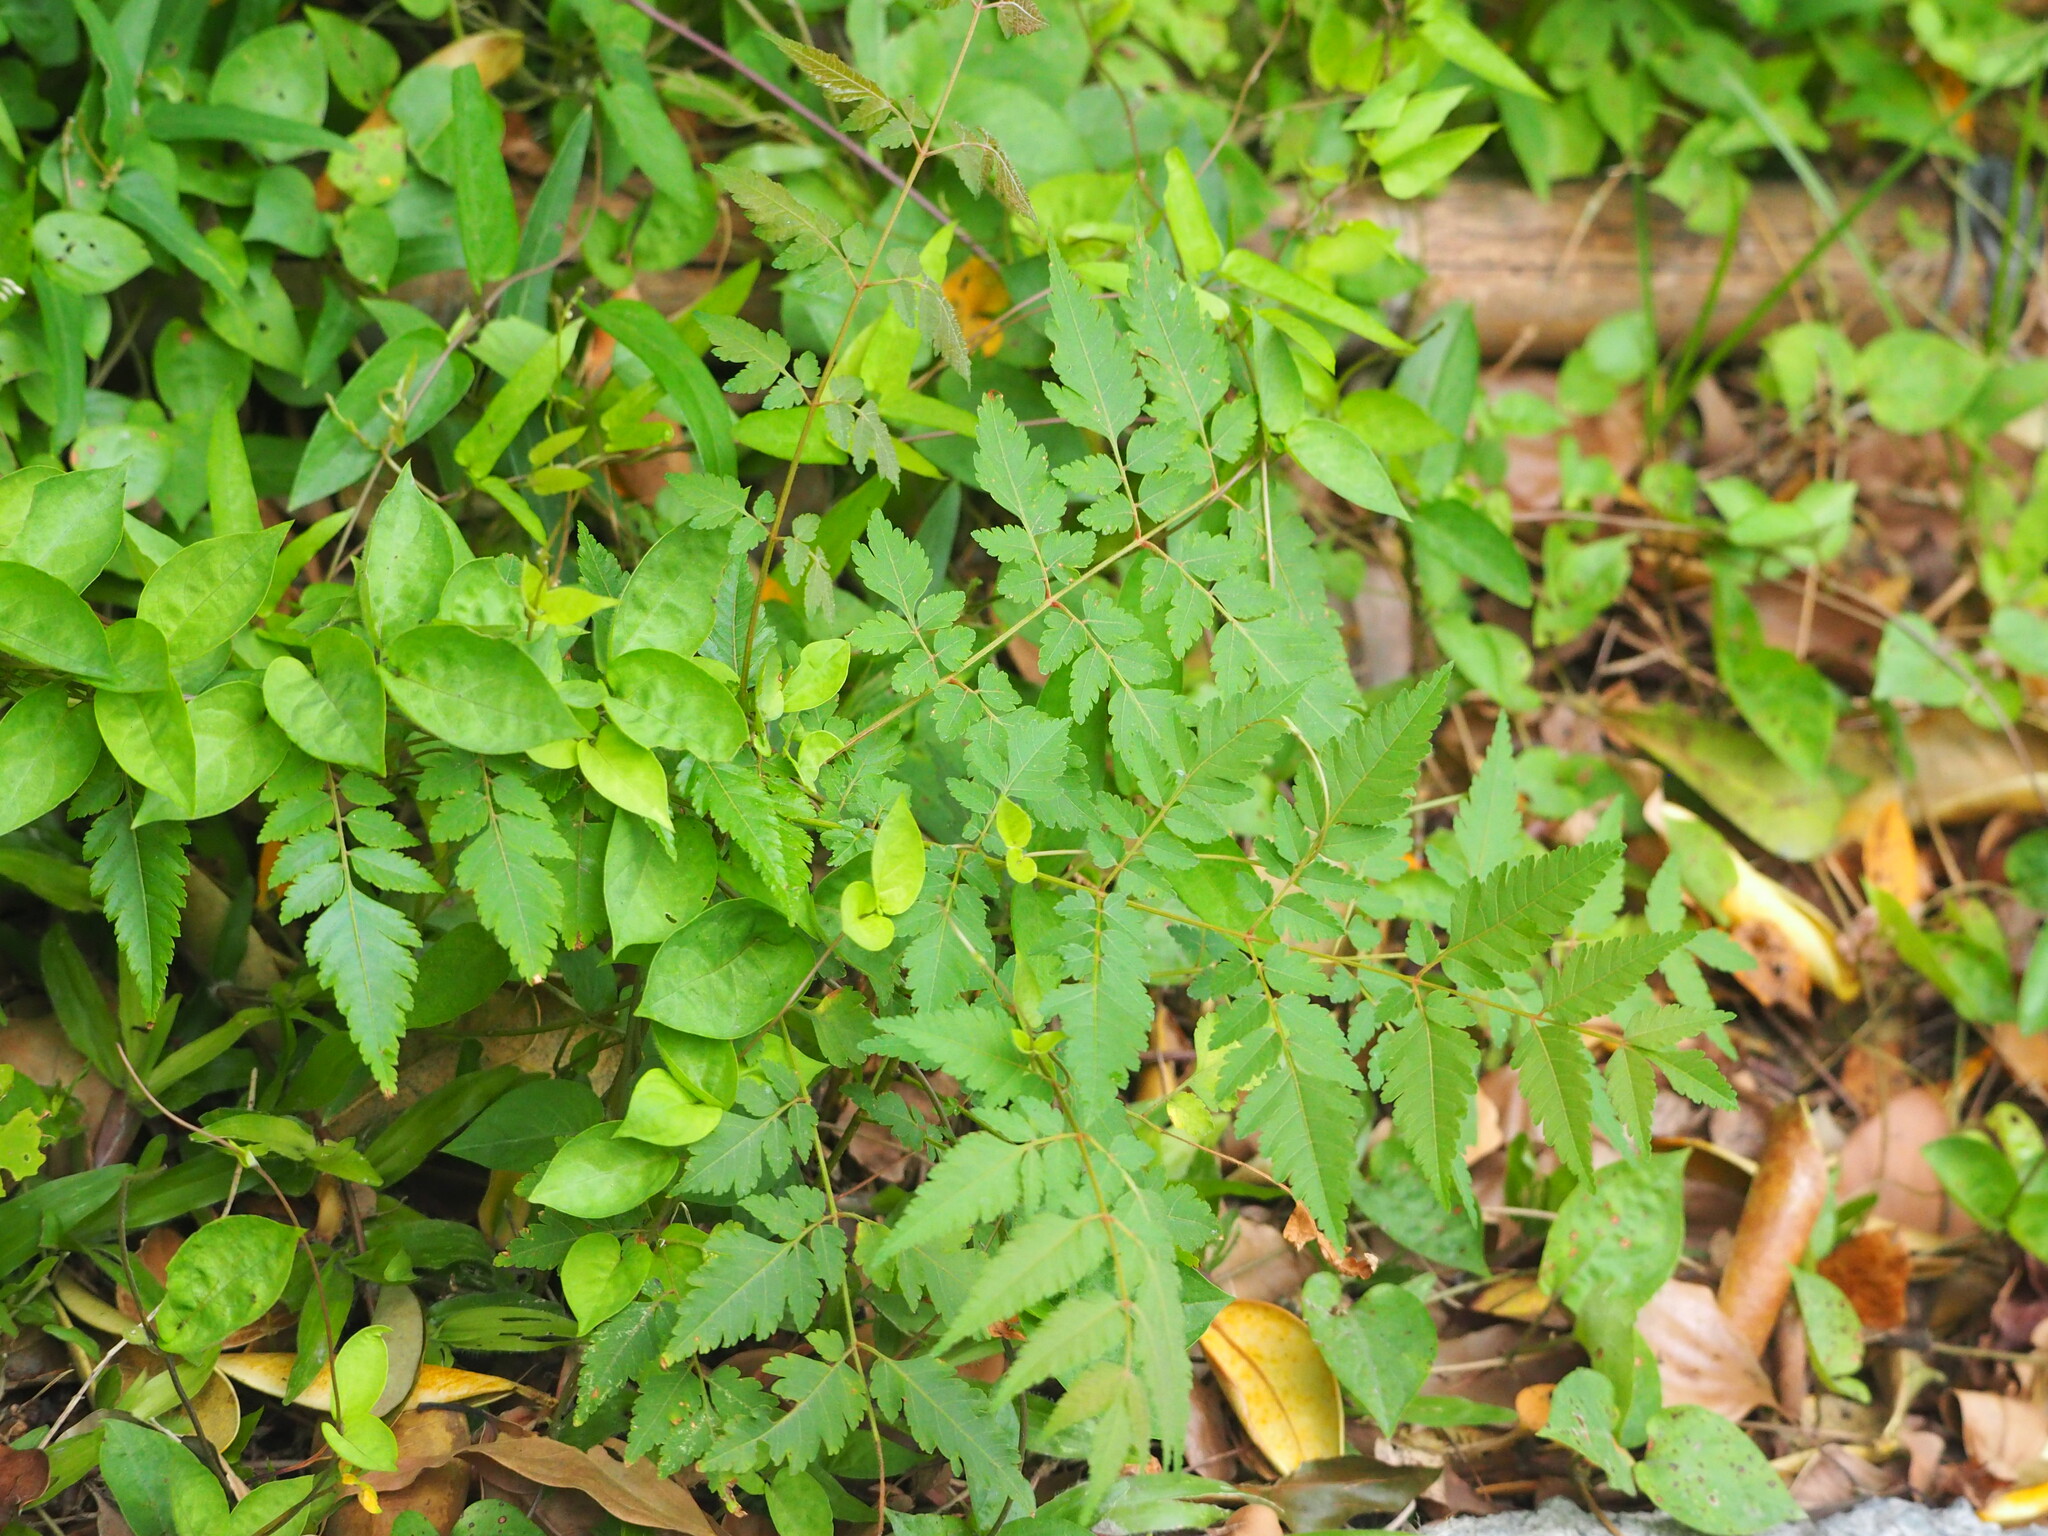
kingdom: Plantae
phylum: Tracheophyta
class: Magnoliopsida
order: Sapindales
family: Sapindaceae
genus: Koelreuteria
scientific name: Koelreuteria elegans
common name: Chinese flame tree
